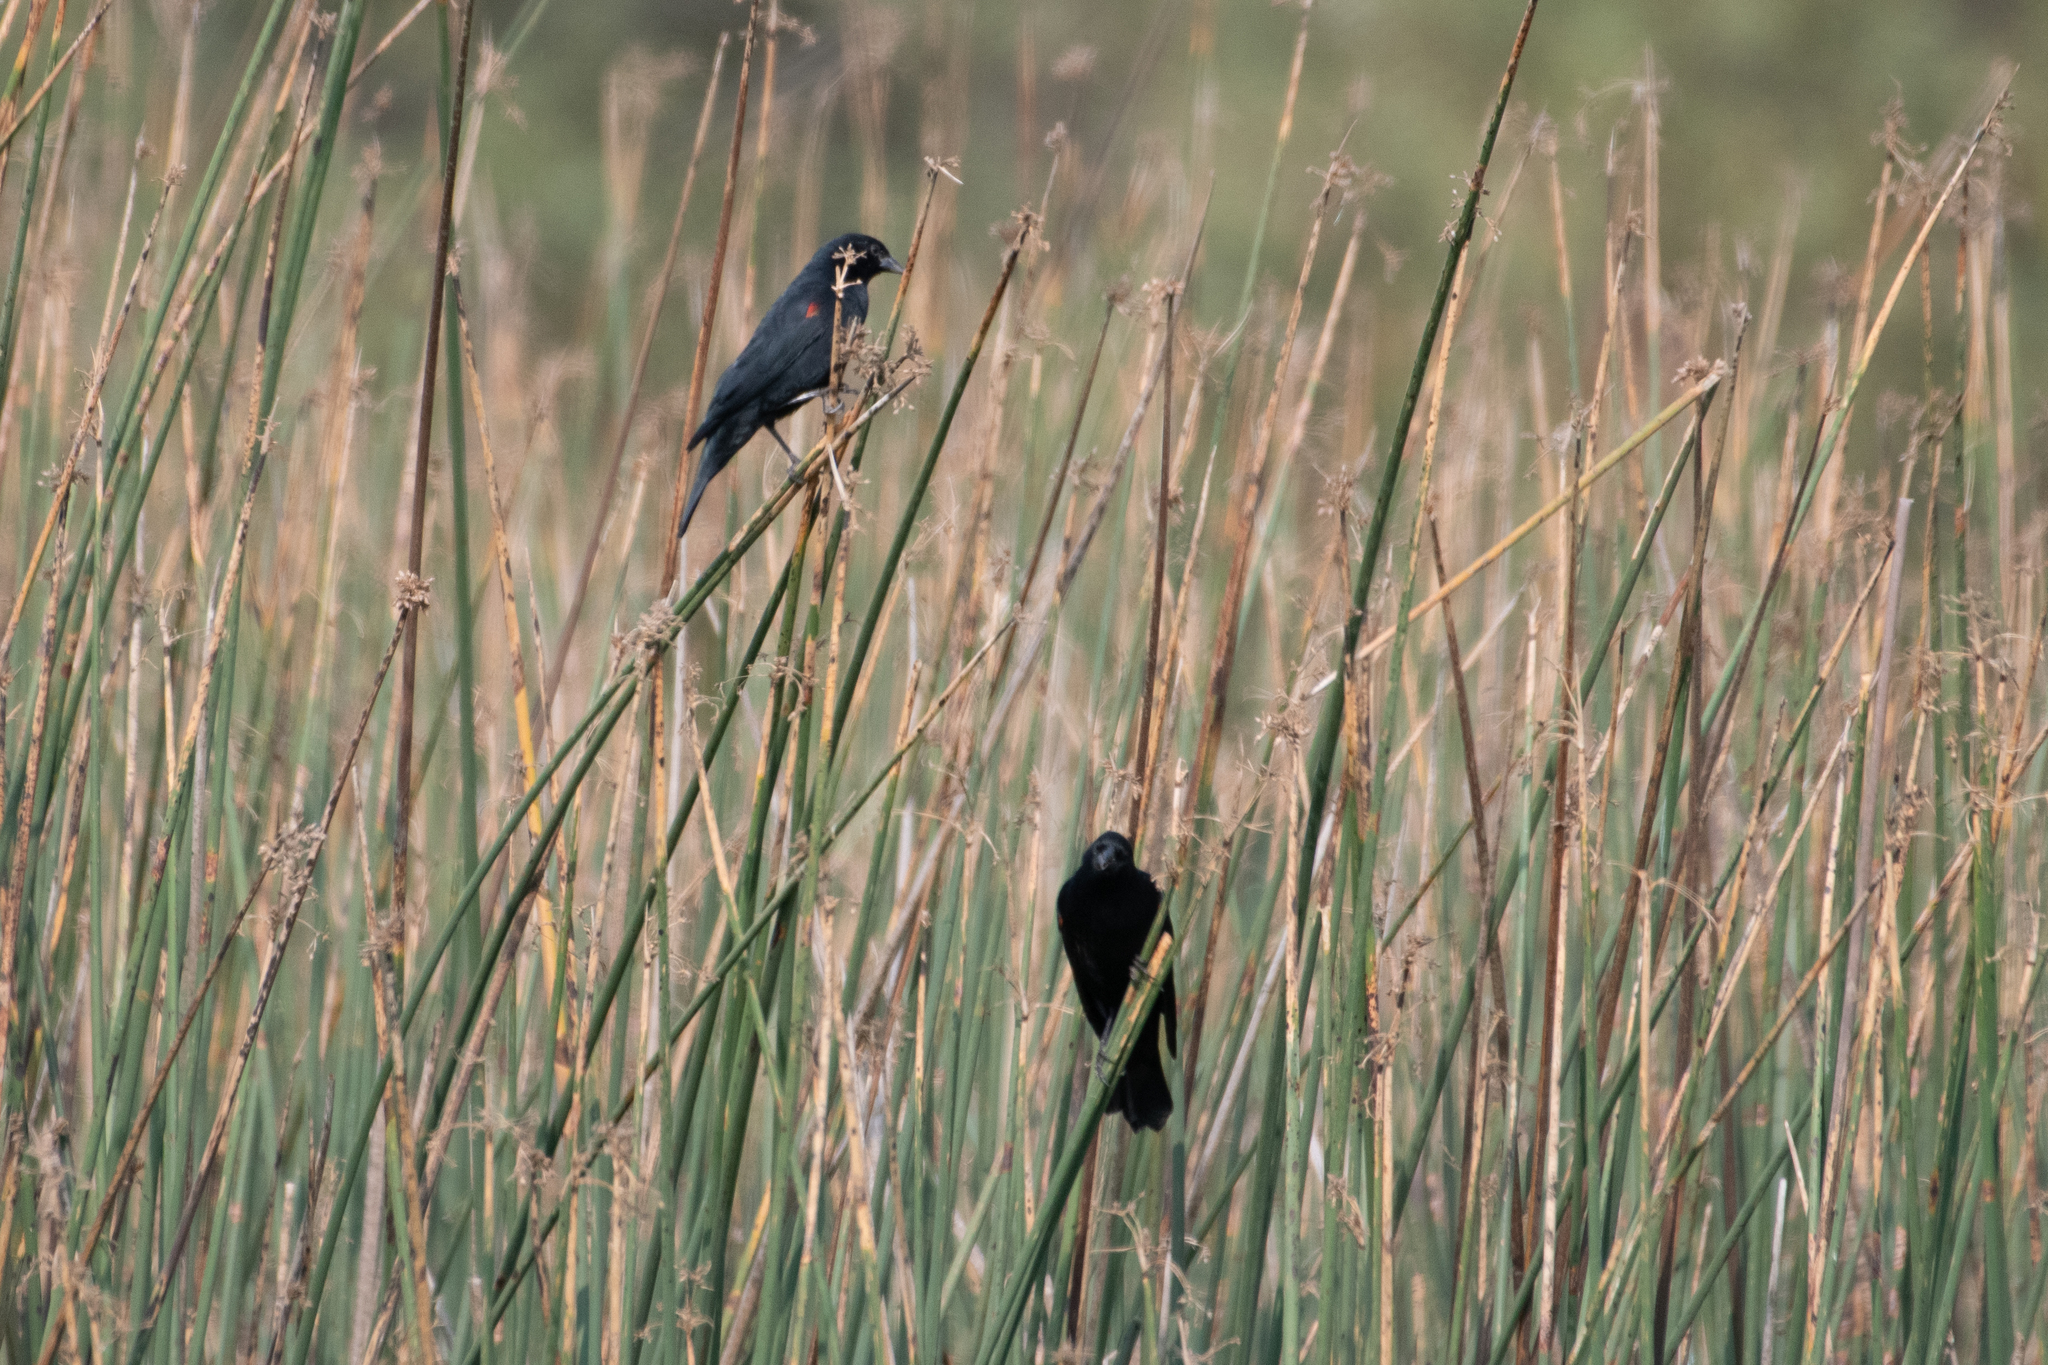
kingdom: Animalia
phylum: Chordata
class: Aves
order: Passeriformes
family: Icteridae
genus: Agelaius
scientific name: Agelaius phoeniceus
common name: Red-winged blackbird
